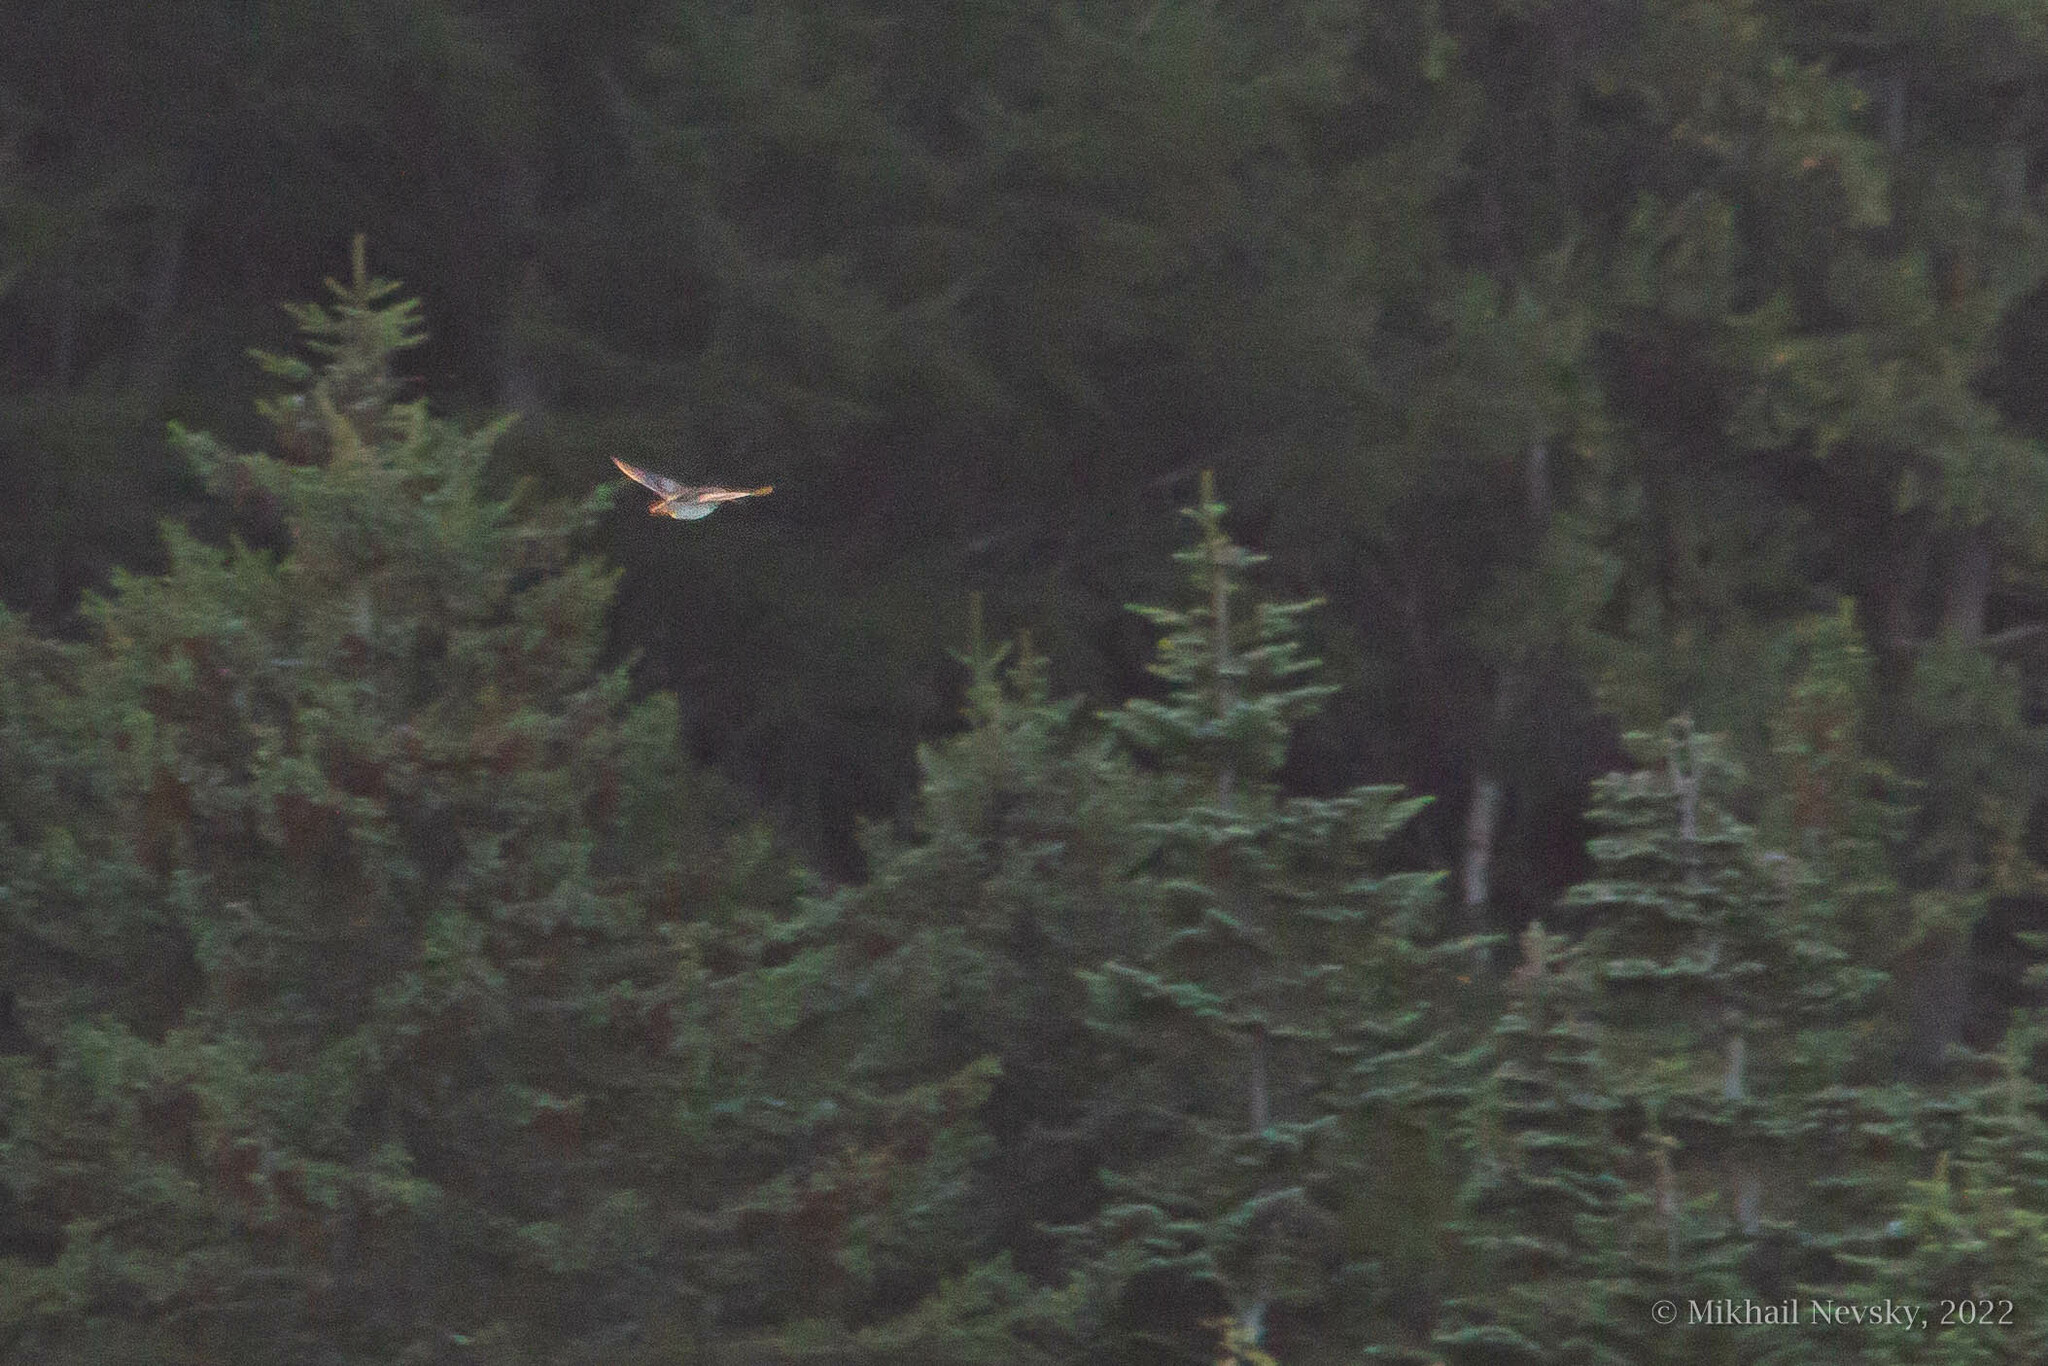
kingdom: Animalia
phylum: Chordata
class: Aves
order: Charadriiformes
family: Scolopacidae
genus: Gallinago
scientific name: Gallinago hardwickii
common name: Latham's snipe
